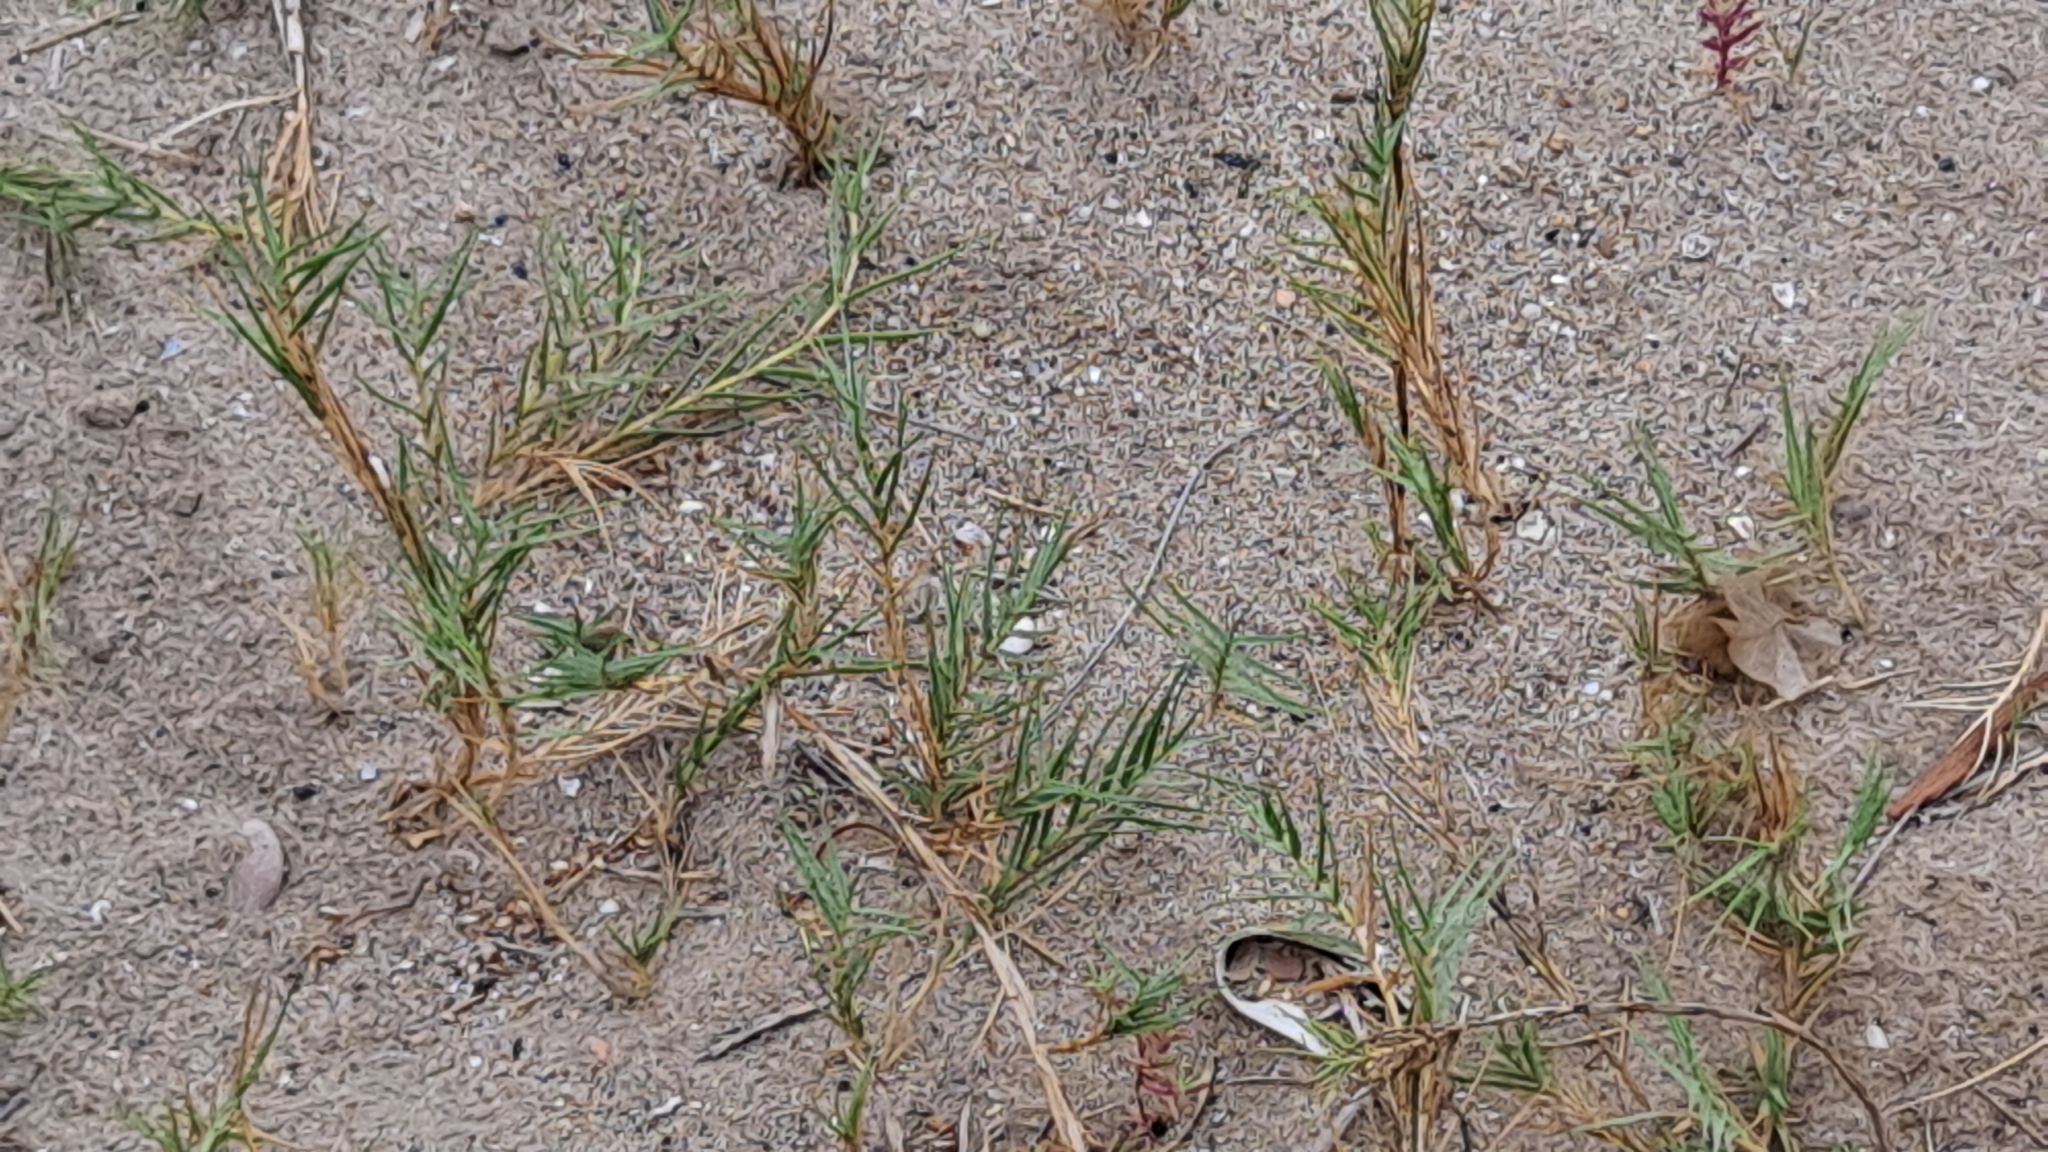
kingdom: Plantae
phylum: Tracheophyta
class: Liliopsida
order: Poales
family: Poaceae
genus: Sporobolus
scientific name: Sporobolus pungens
